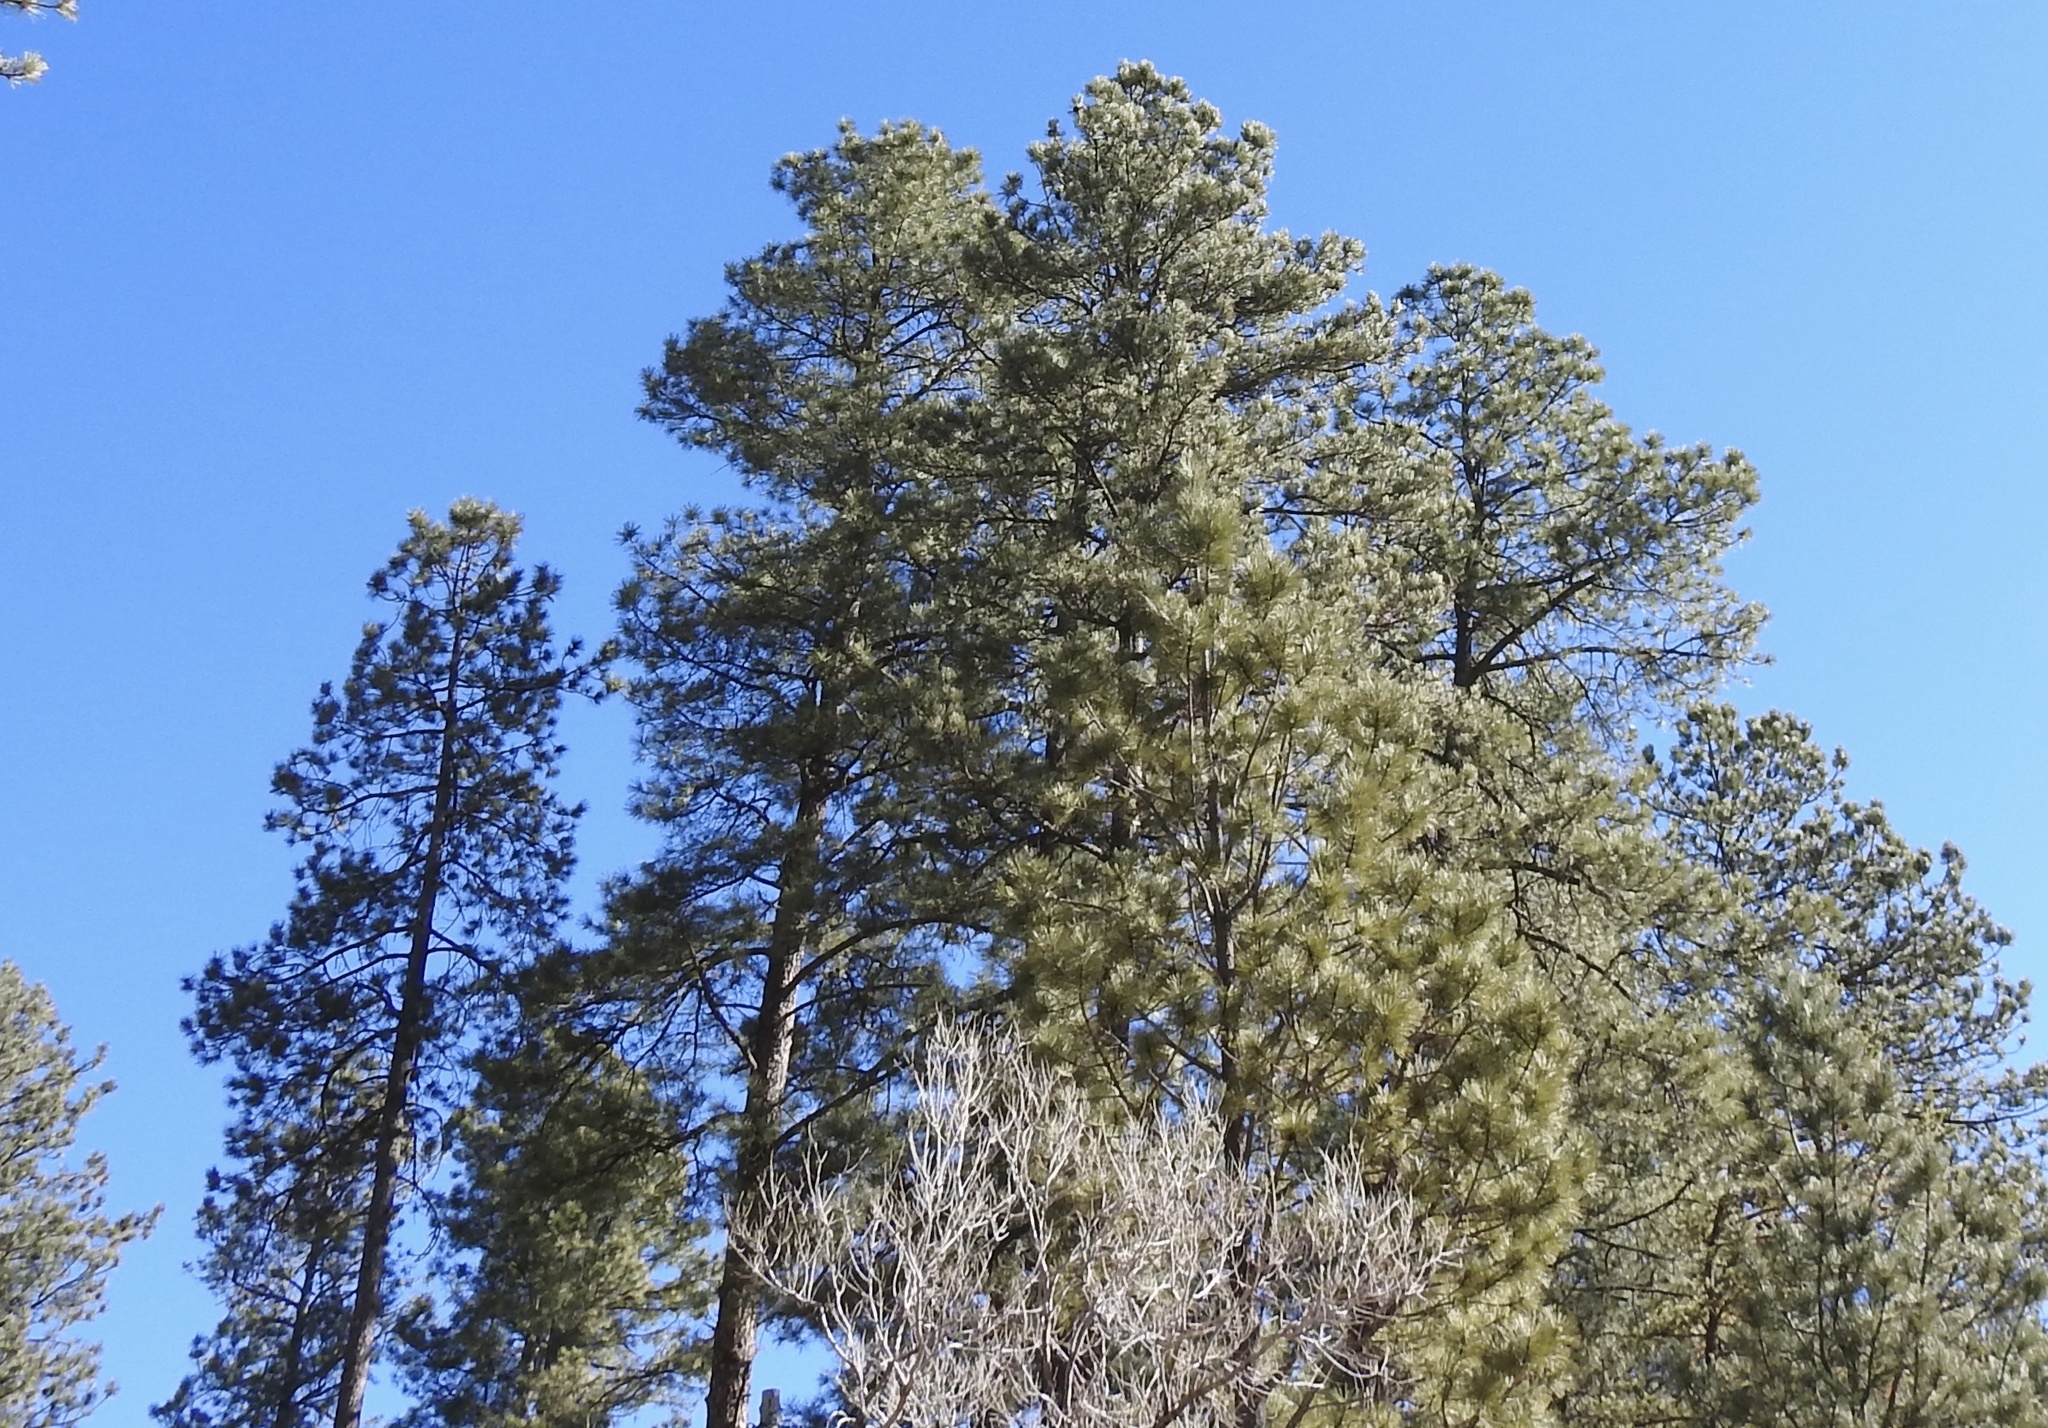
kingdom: Plantae
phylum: Tracheophyta
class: Pinopsida
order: Pinales
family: Pinaceae
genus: Pinus
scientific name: Pinus ponderosa
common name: Western yellow-pine
